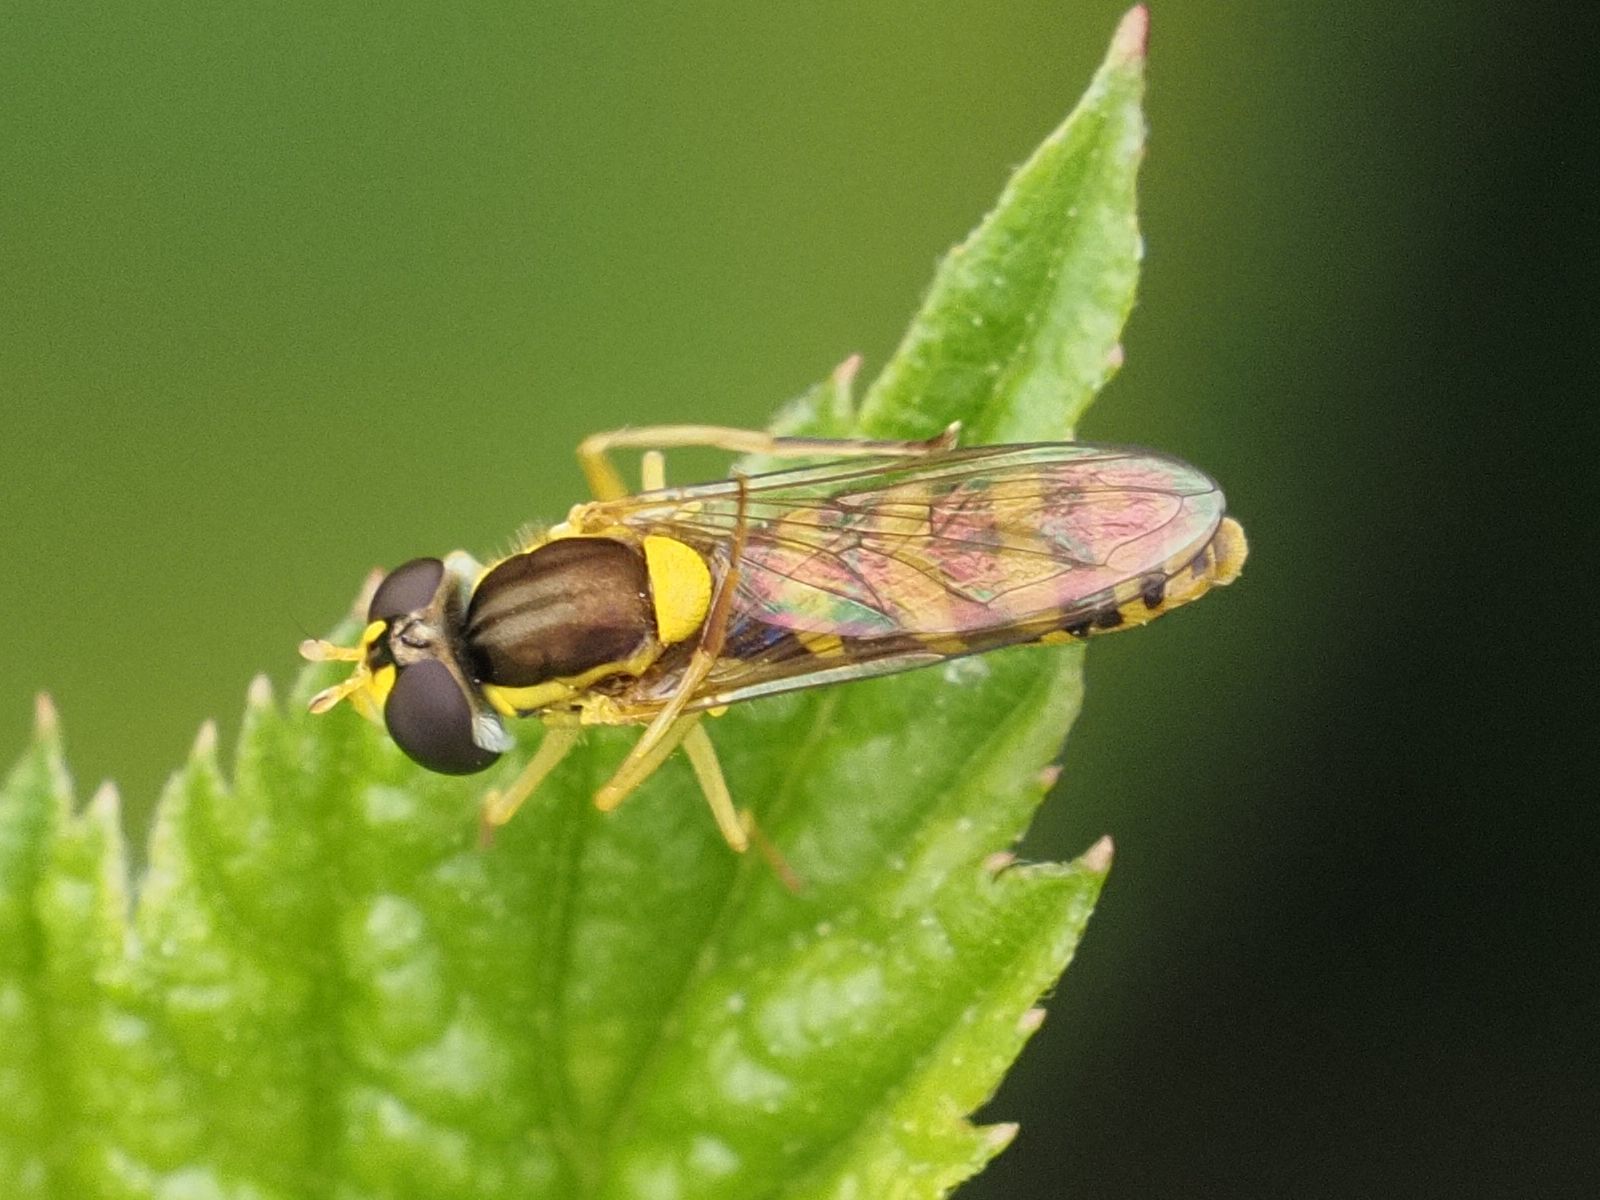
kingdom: Animalia
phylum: Arthropoda
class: Insecta
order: Diptera
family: Syrphidae
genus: Sphaerophoria
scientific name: Sphaerophoria
